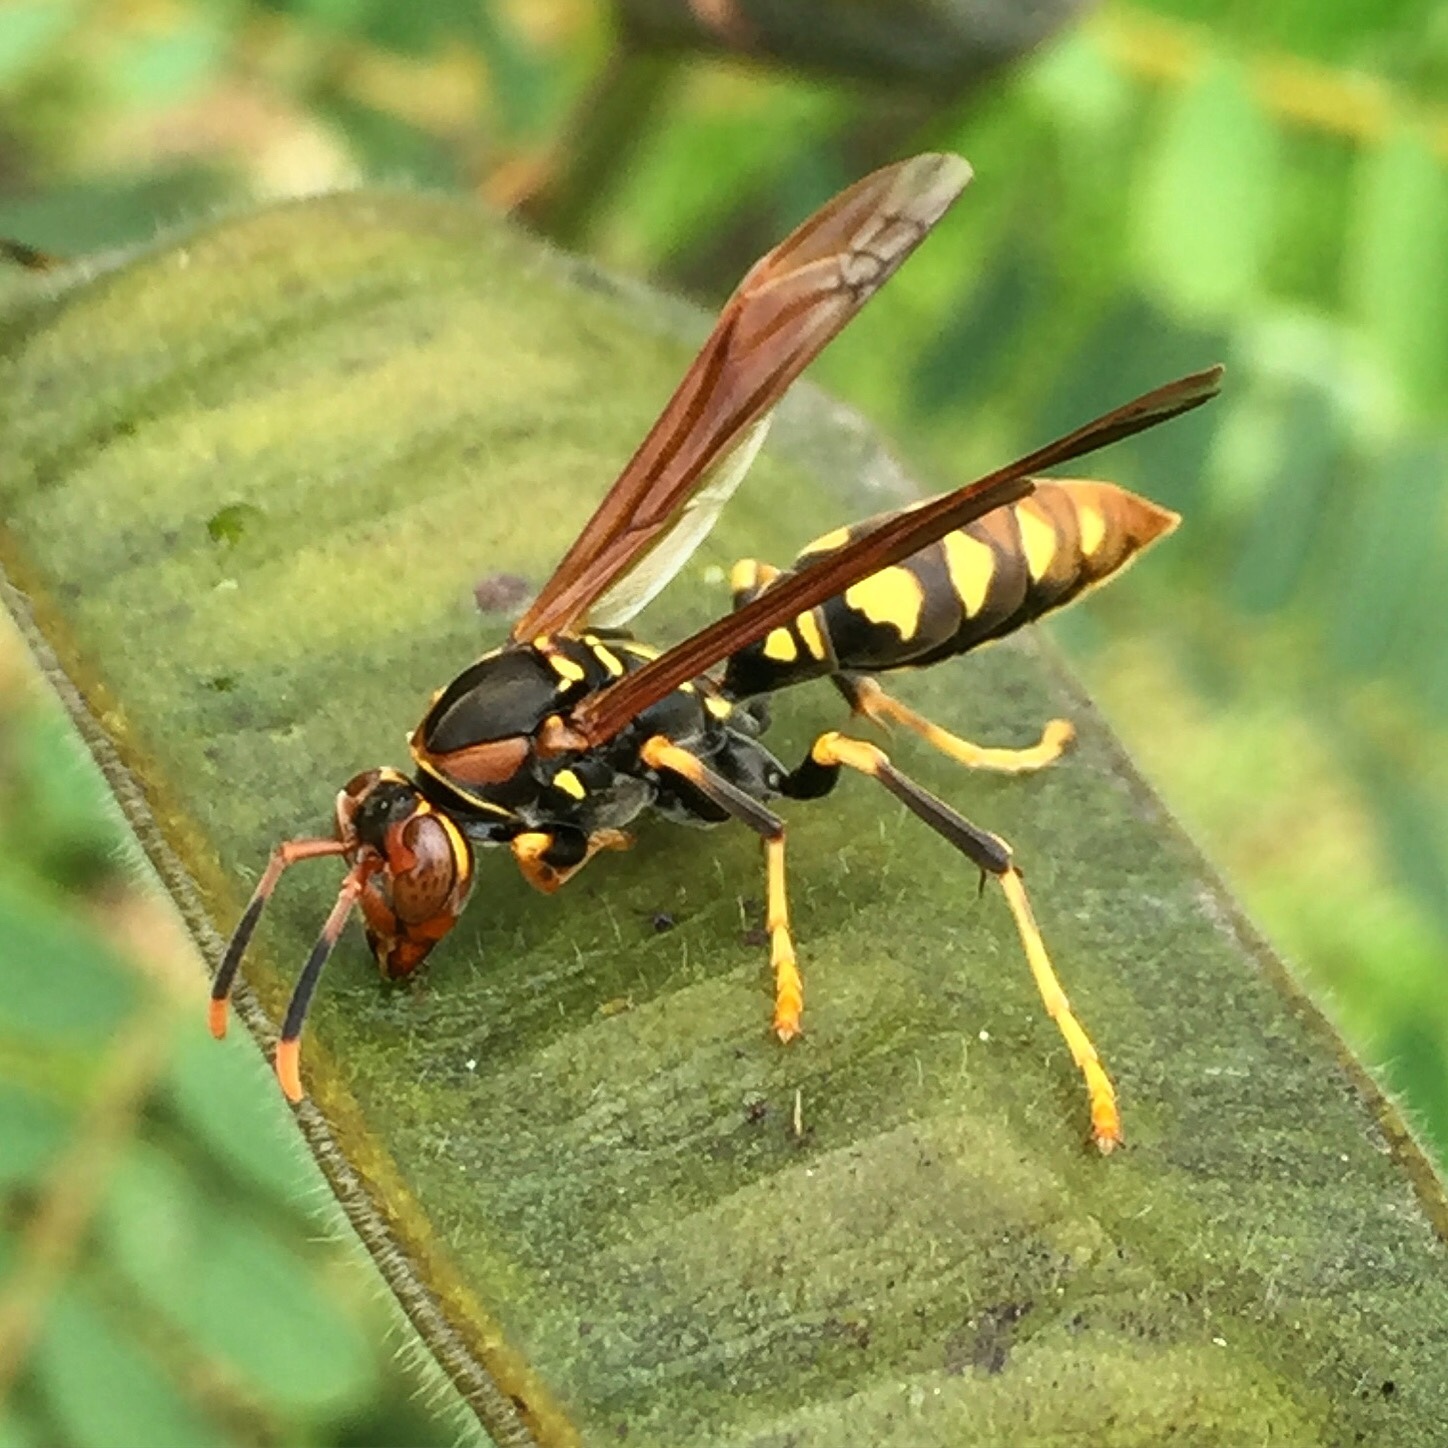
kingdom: Animalia
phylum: Arthropoda
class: Insecta
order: Hymenoptera
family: Eumenidae
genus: Polistes
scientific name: Polistes weyrauchorum
